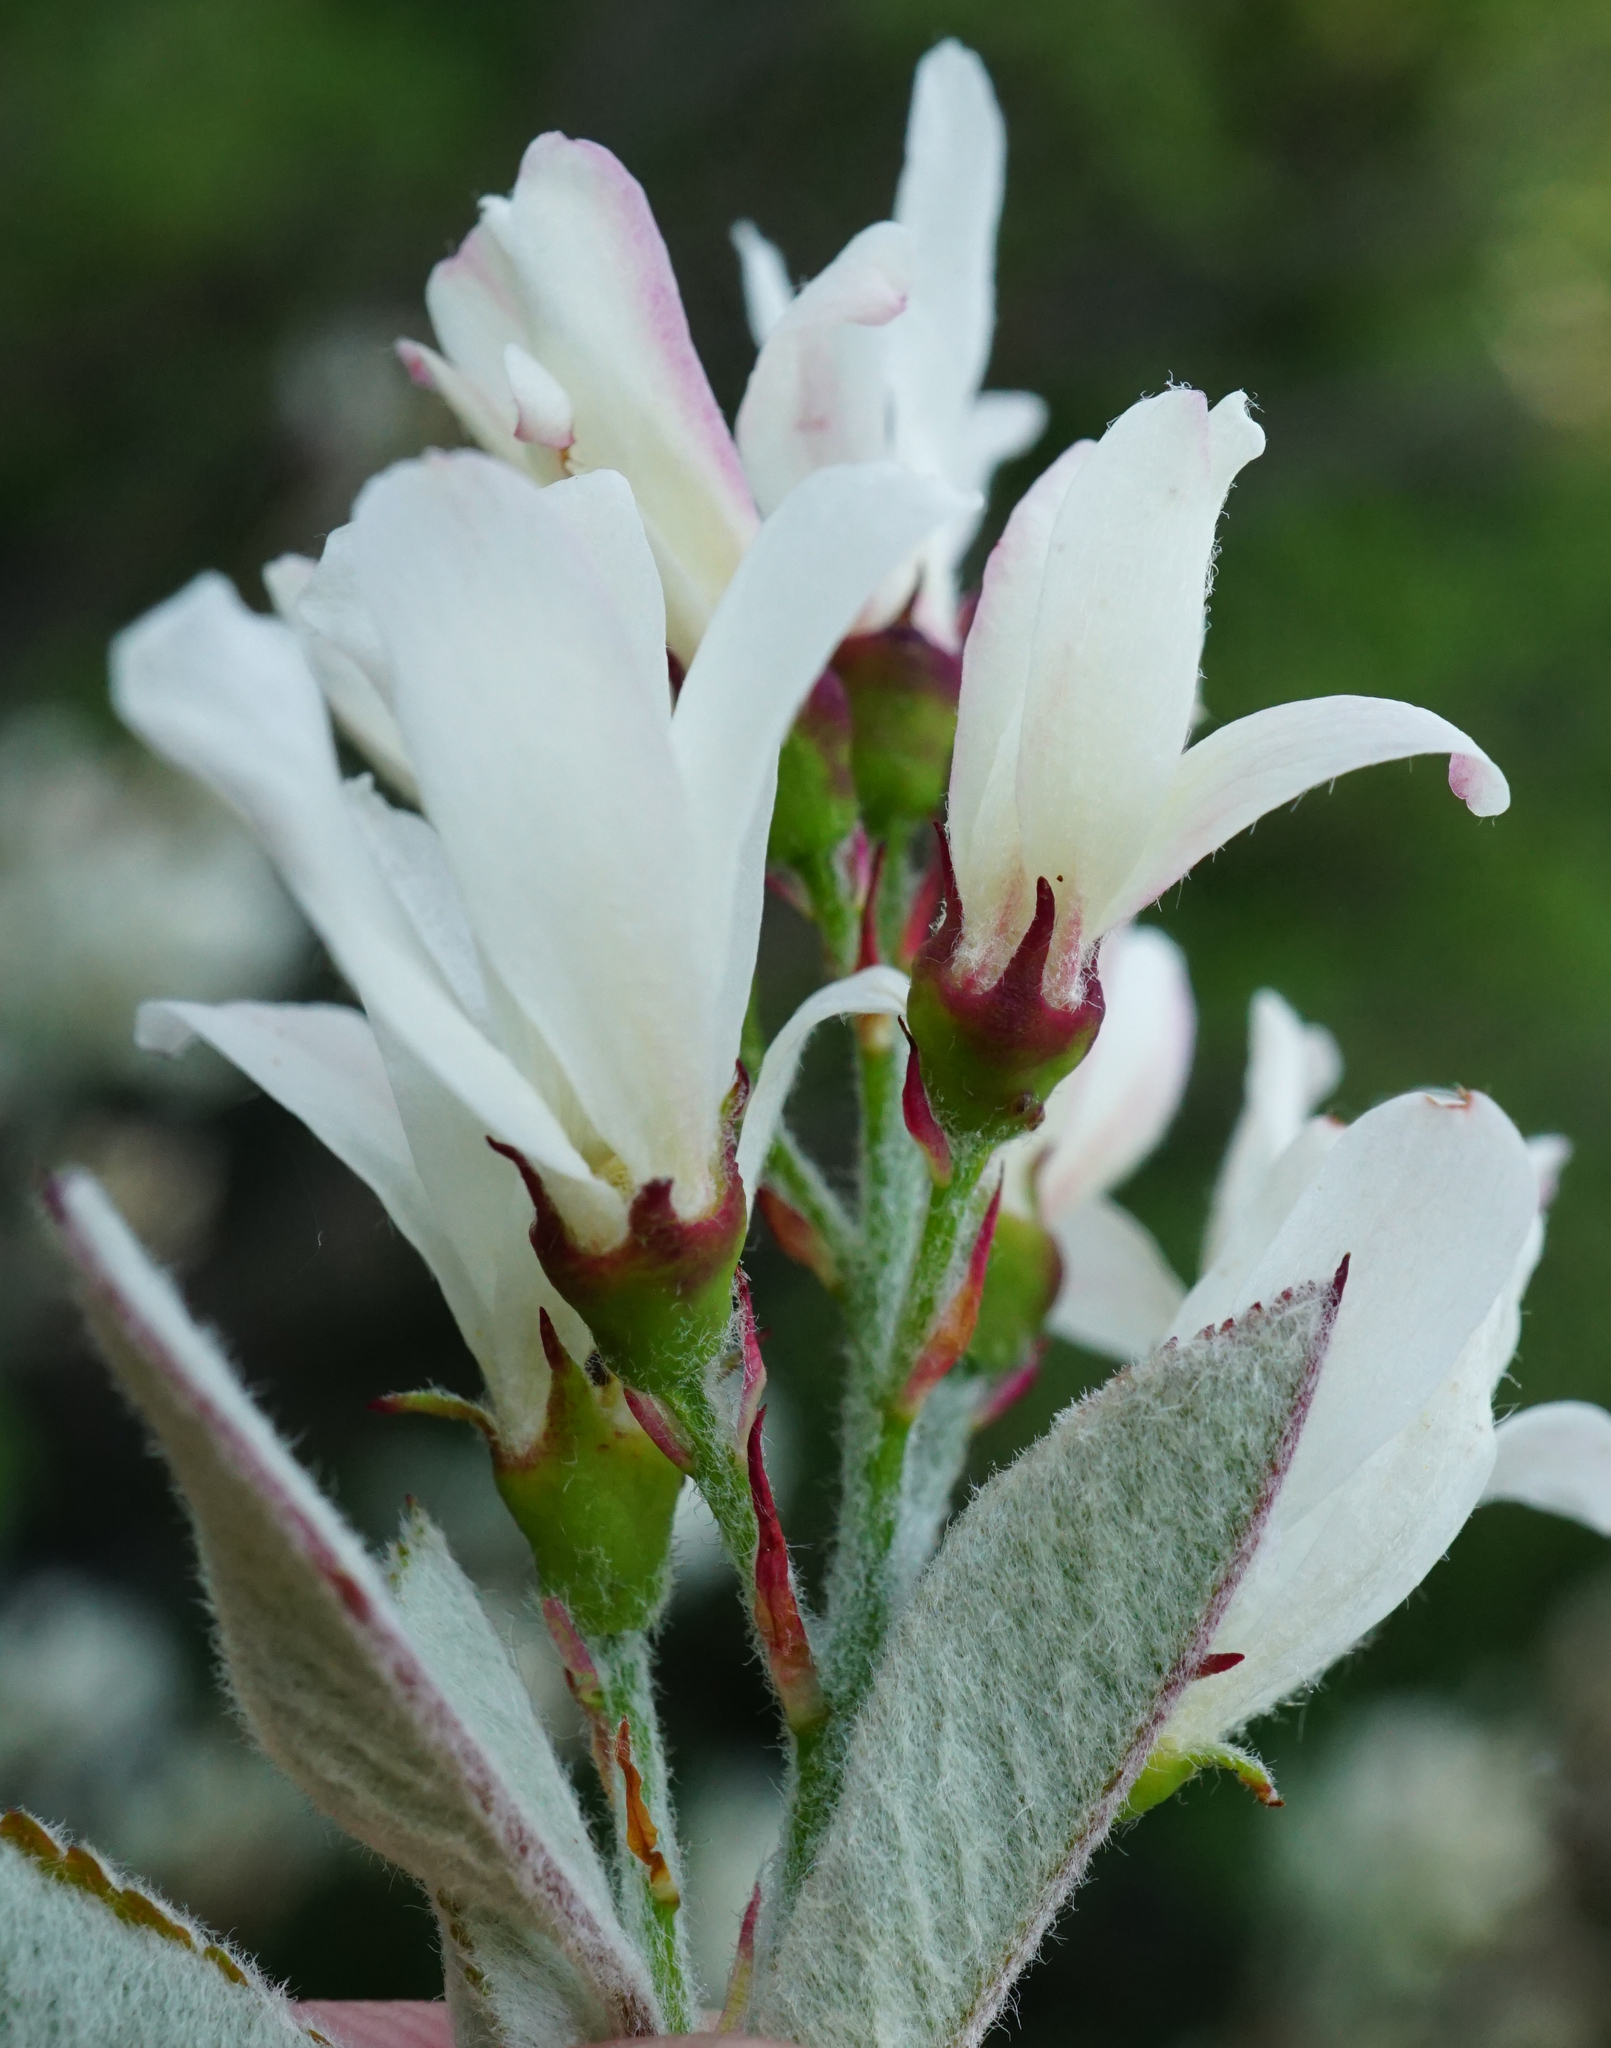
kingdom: Plantae
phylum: Tracheophyta
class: Magnoliopsida
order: Rosales
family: Rosaceae
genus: Amelanchier
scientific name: Amelanchier ovalis
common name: Serviceberry
